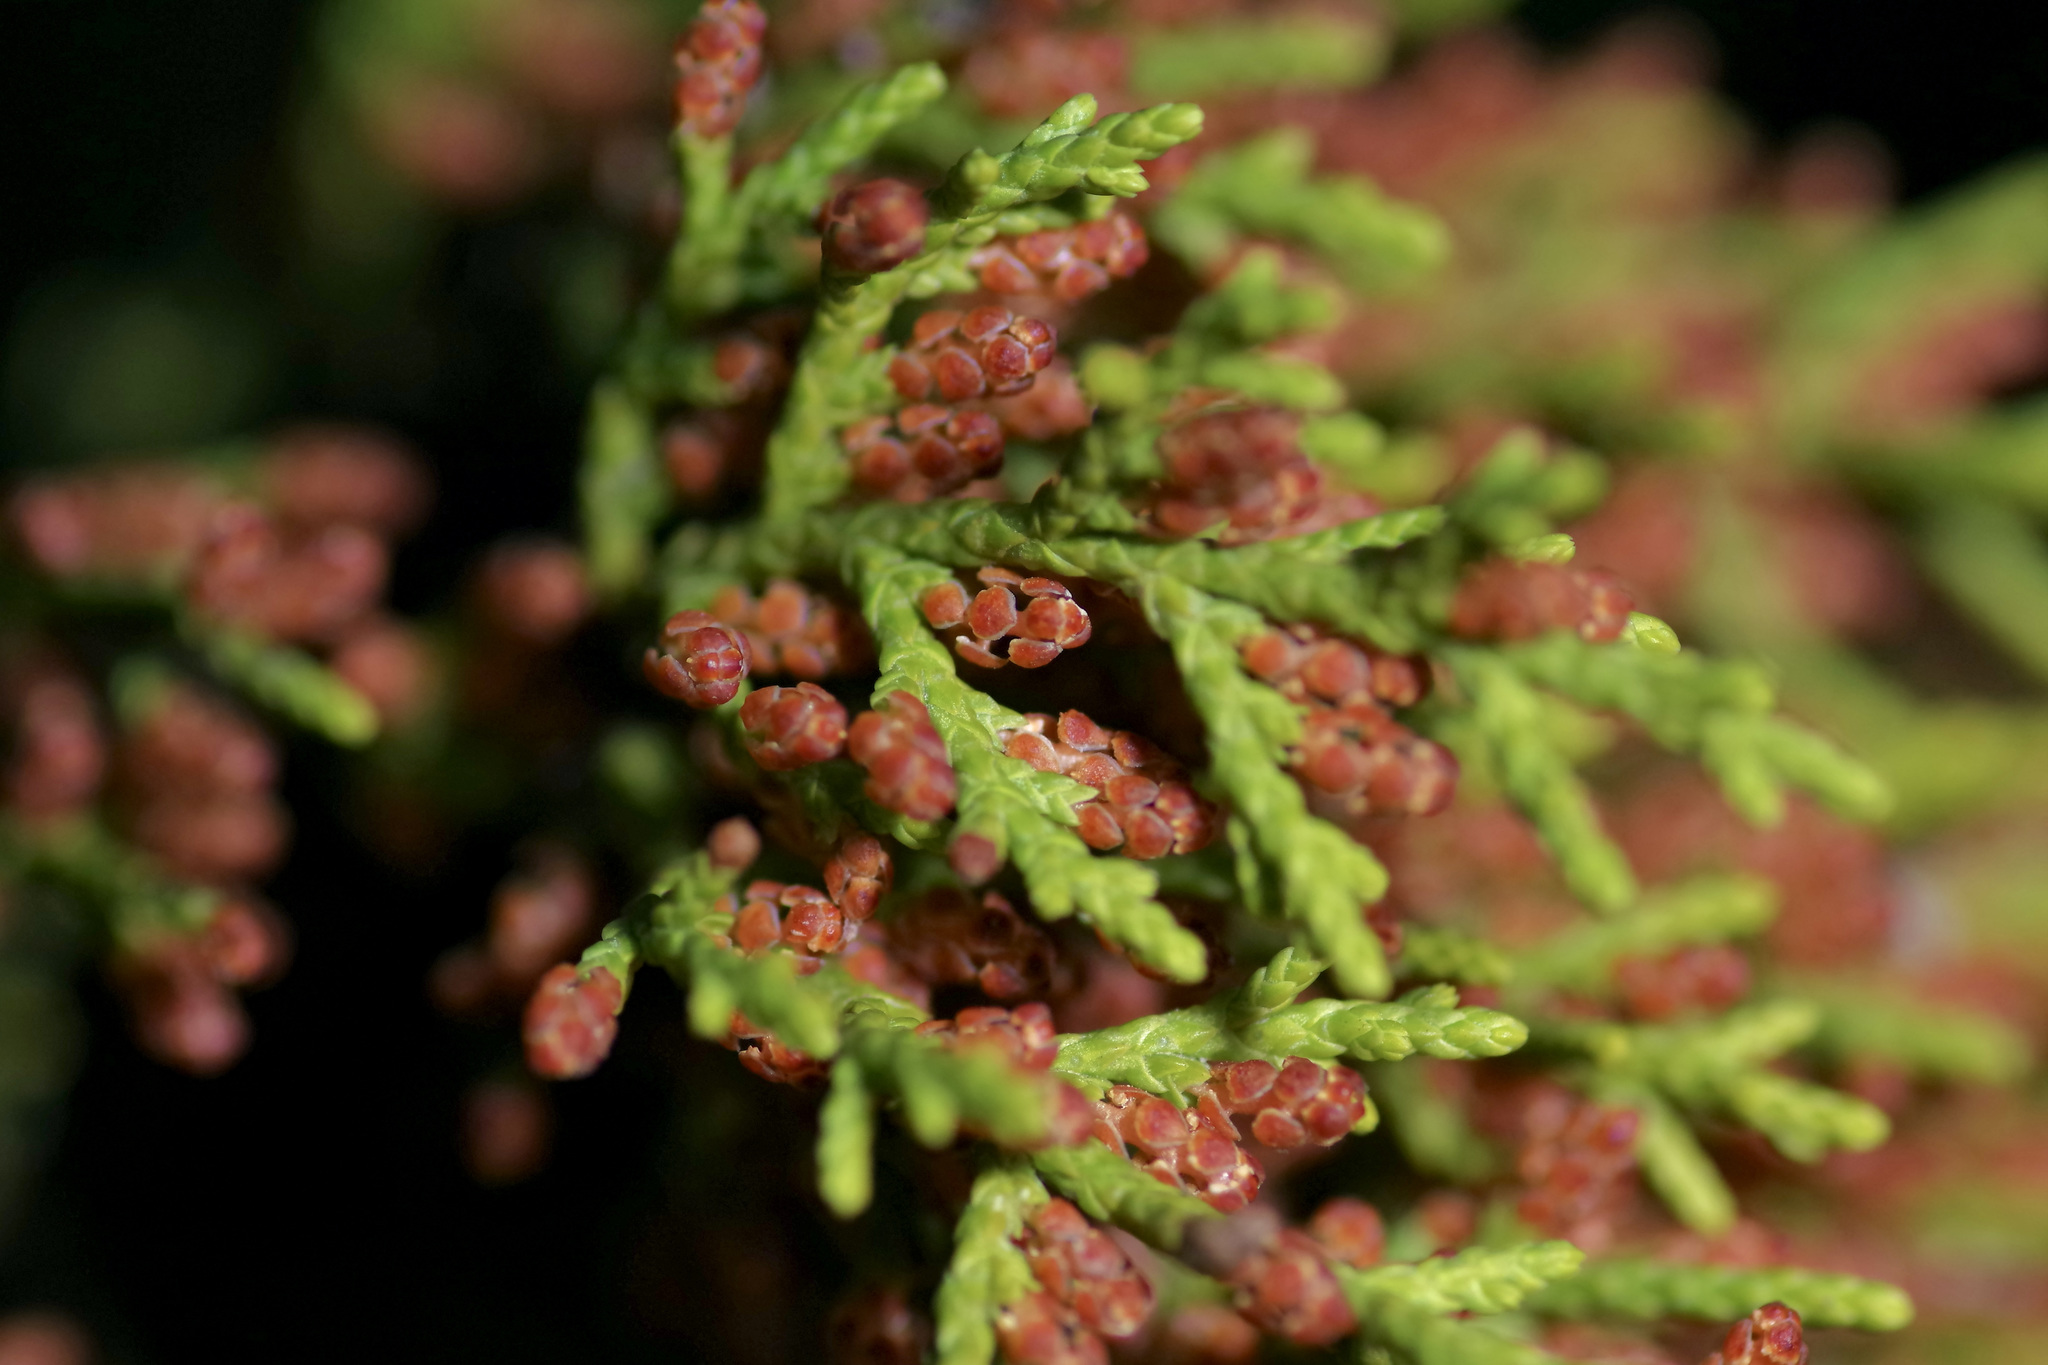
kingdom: Plantae
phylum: Tracheophyta
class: Pinopsida
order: Pinales
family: Cupressaceae
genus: Juniperus
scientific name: Juniperus ashei
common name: Mexican juniper
